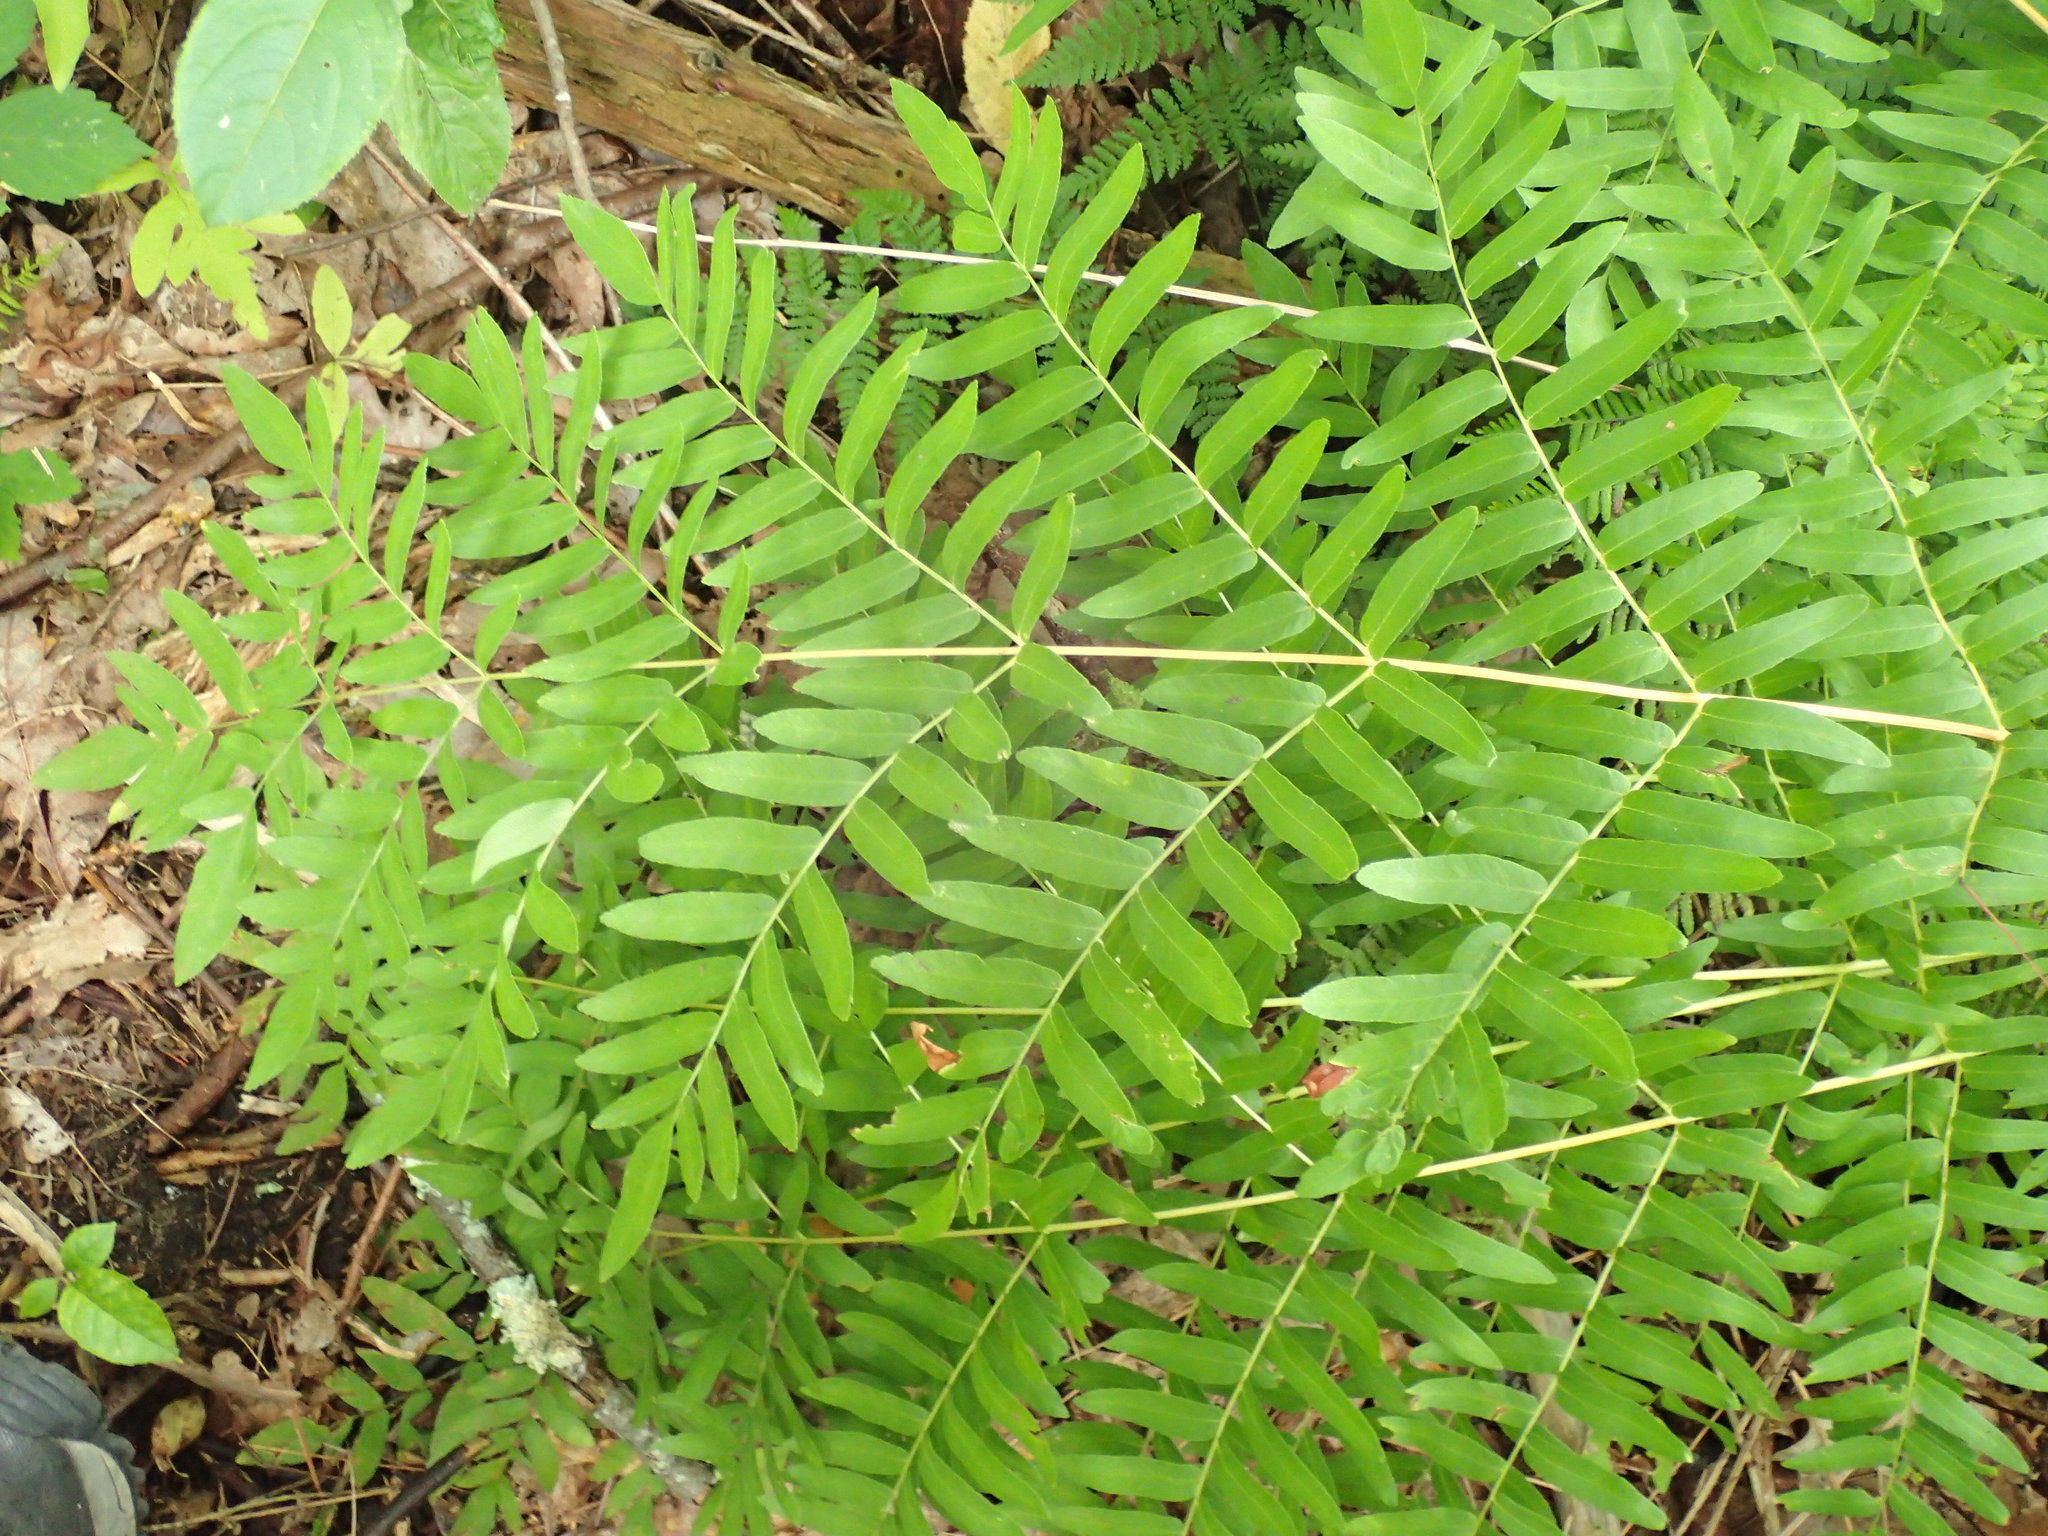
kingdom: Plantae
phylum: Tracheophyta
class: Polypodiopsida
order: Osmundales
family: Osmundaceae
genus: Osmunda
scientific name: Osmunda spectabilis
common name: American royal fern
